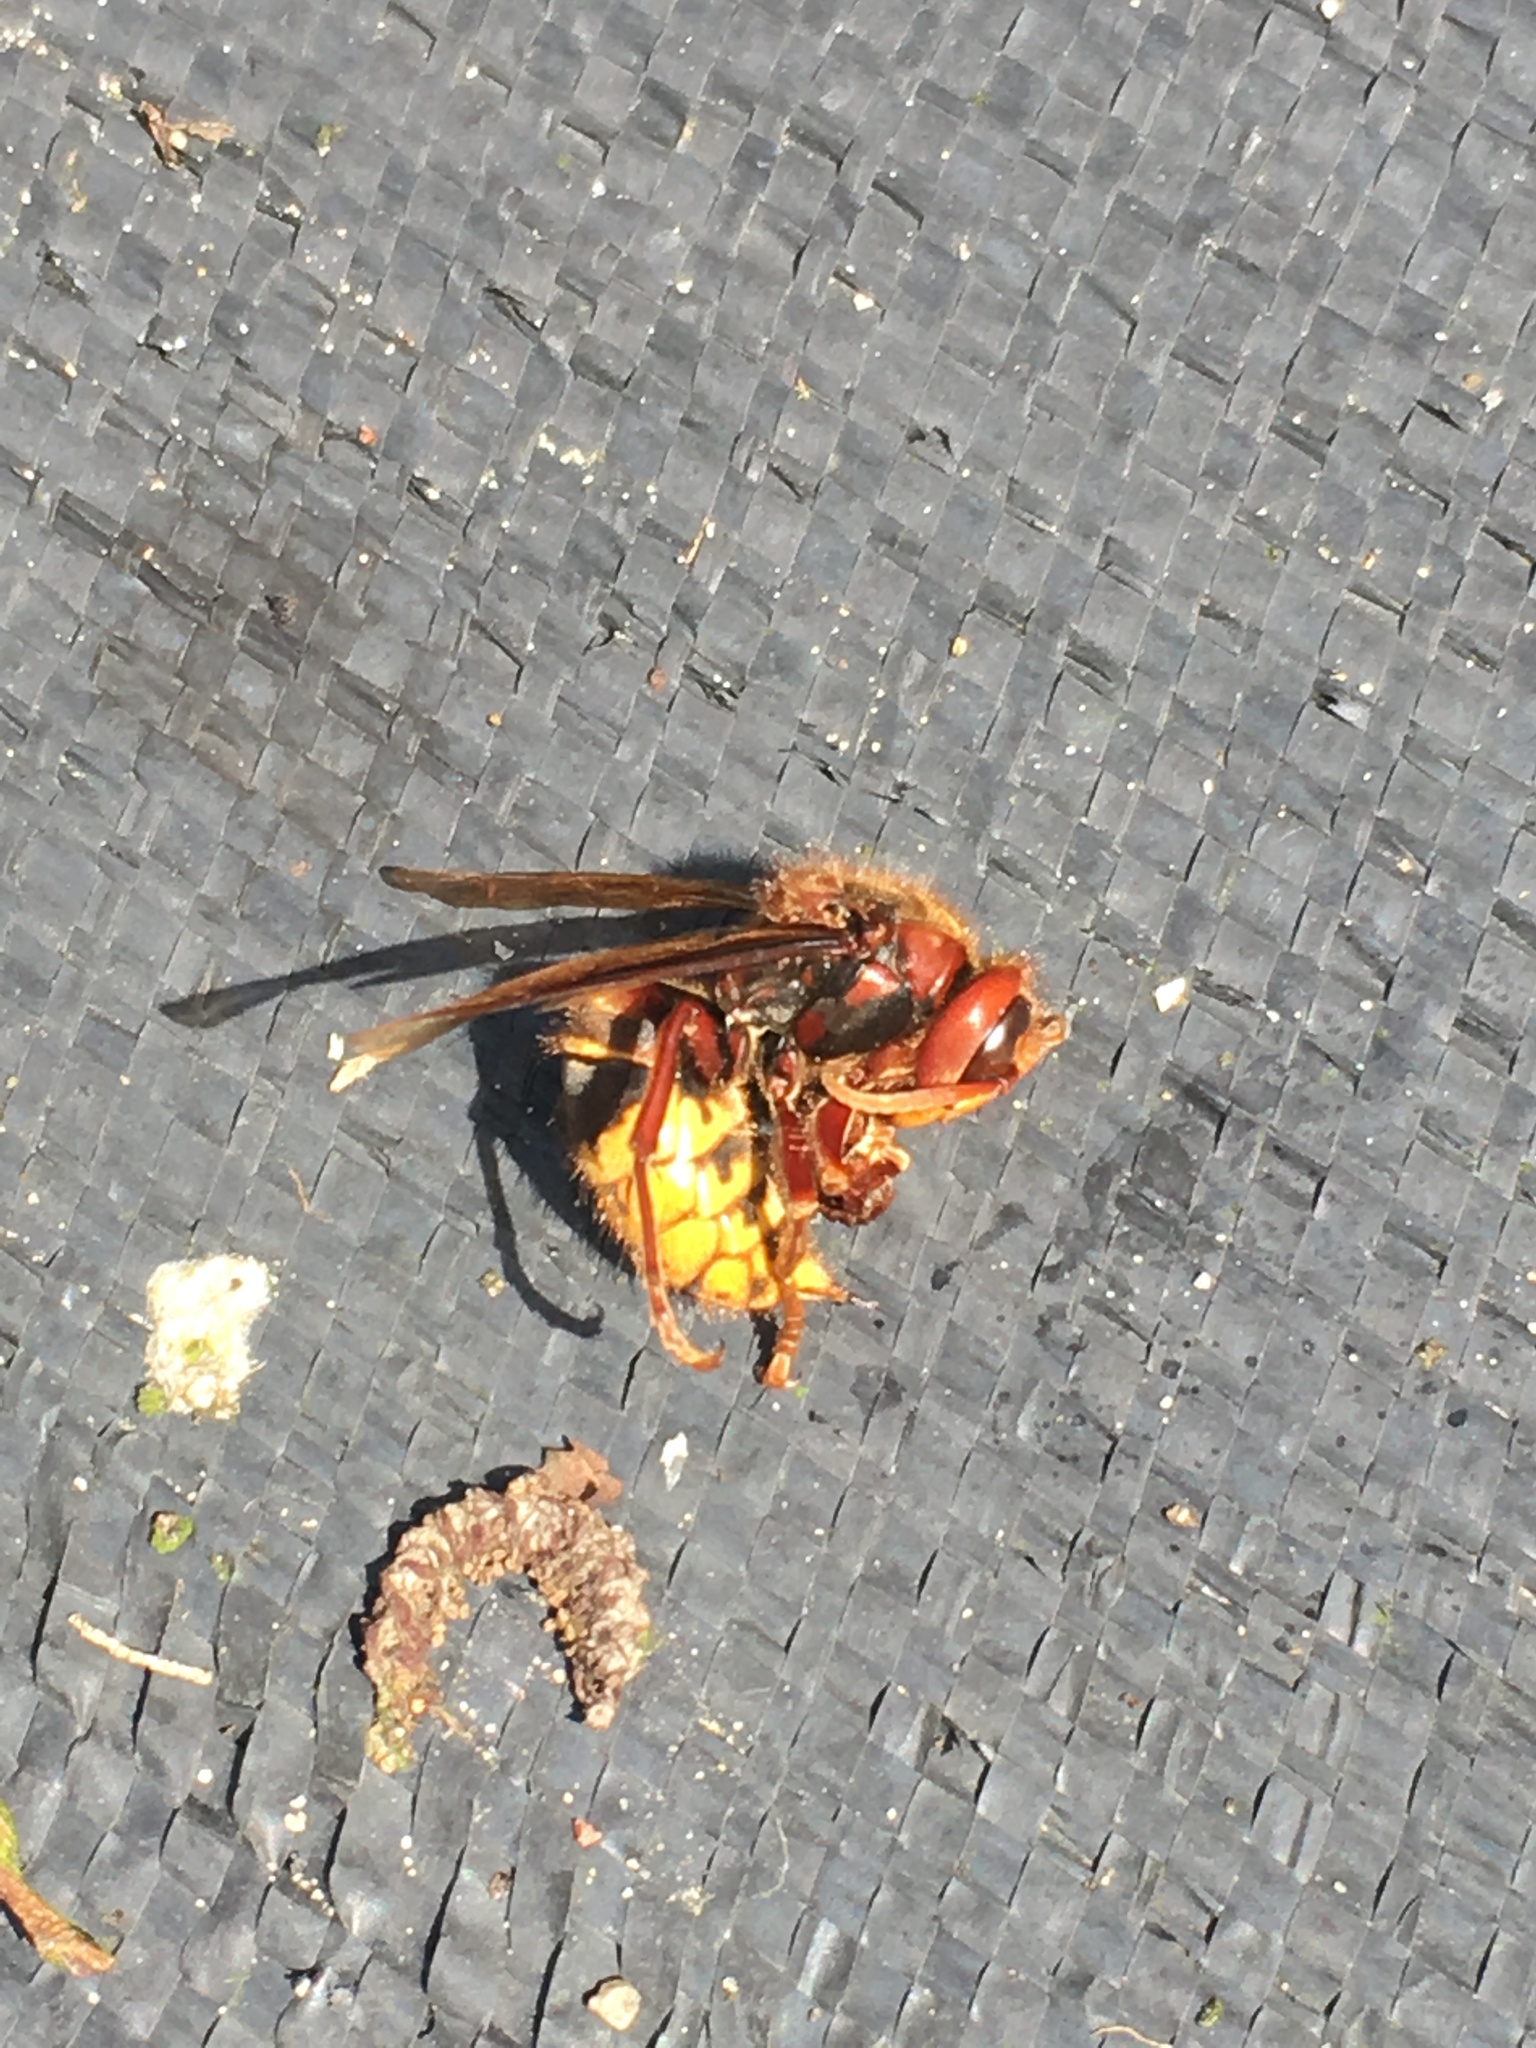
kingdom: Animalia
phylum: Arthropoda
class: Insecta
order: Hymenoptera
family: Vespidae
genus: Vespa
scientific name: Vespa crabro
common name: Hornet
